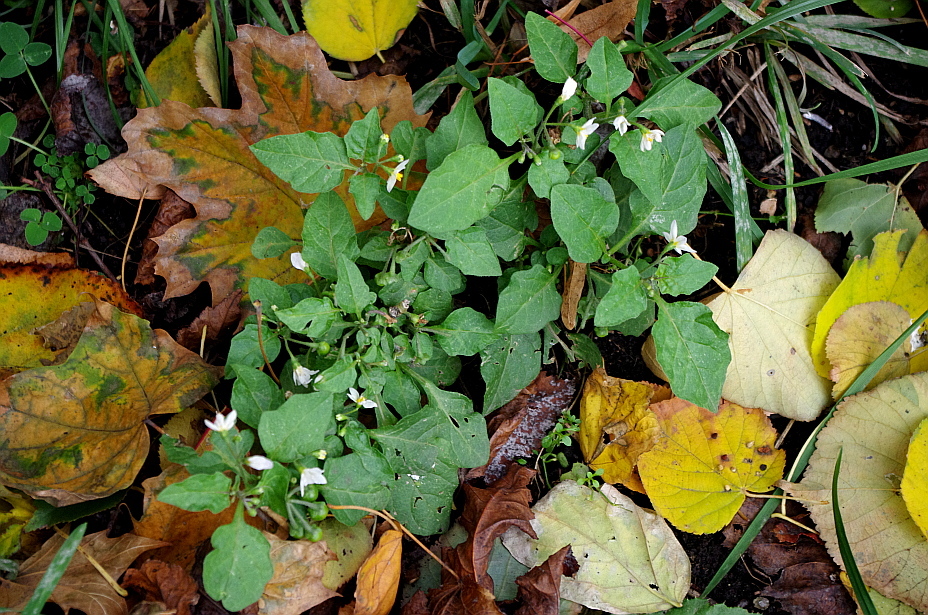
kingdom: Plantae
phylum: Tracheophyta
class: Magnoliopsida
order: Solanales
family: Solanaceae
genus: Solanum
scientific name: Solanum nigrum
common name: Black nightshade
